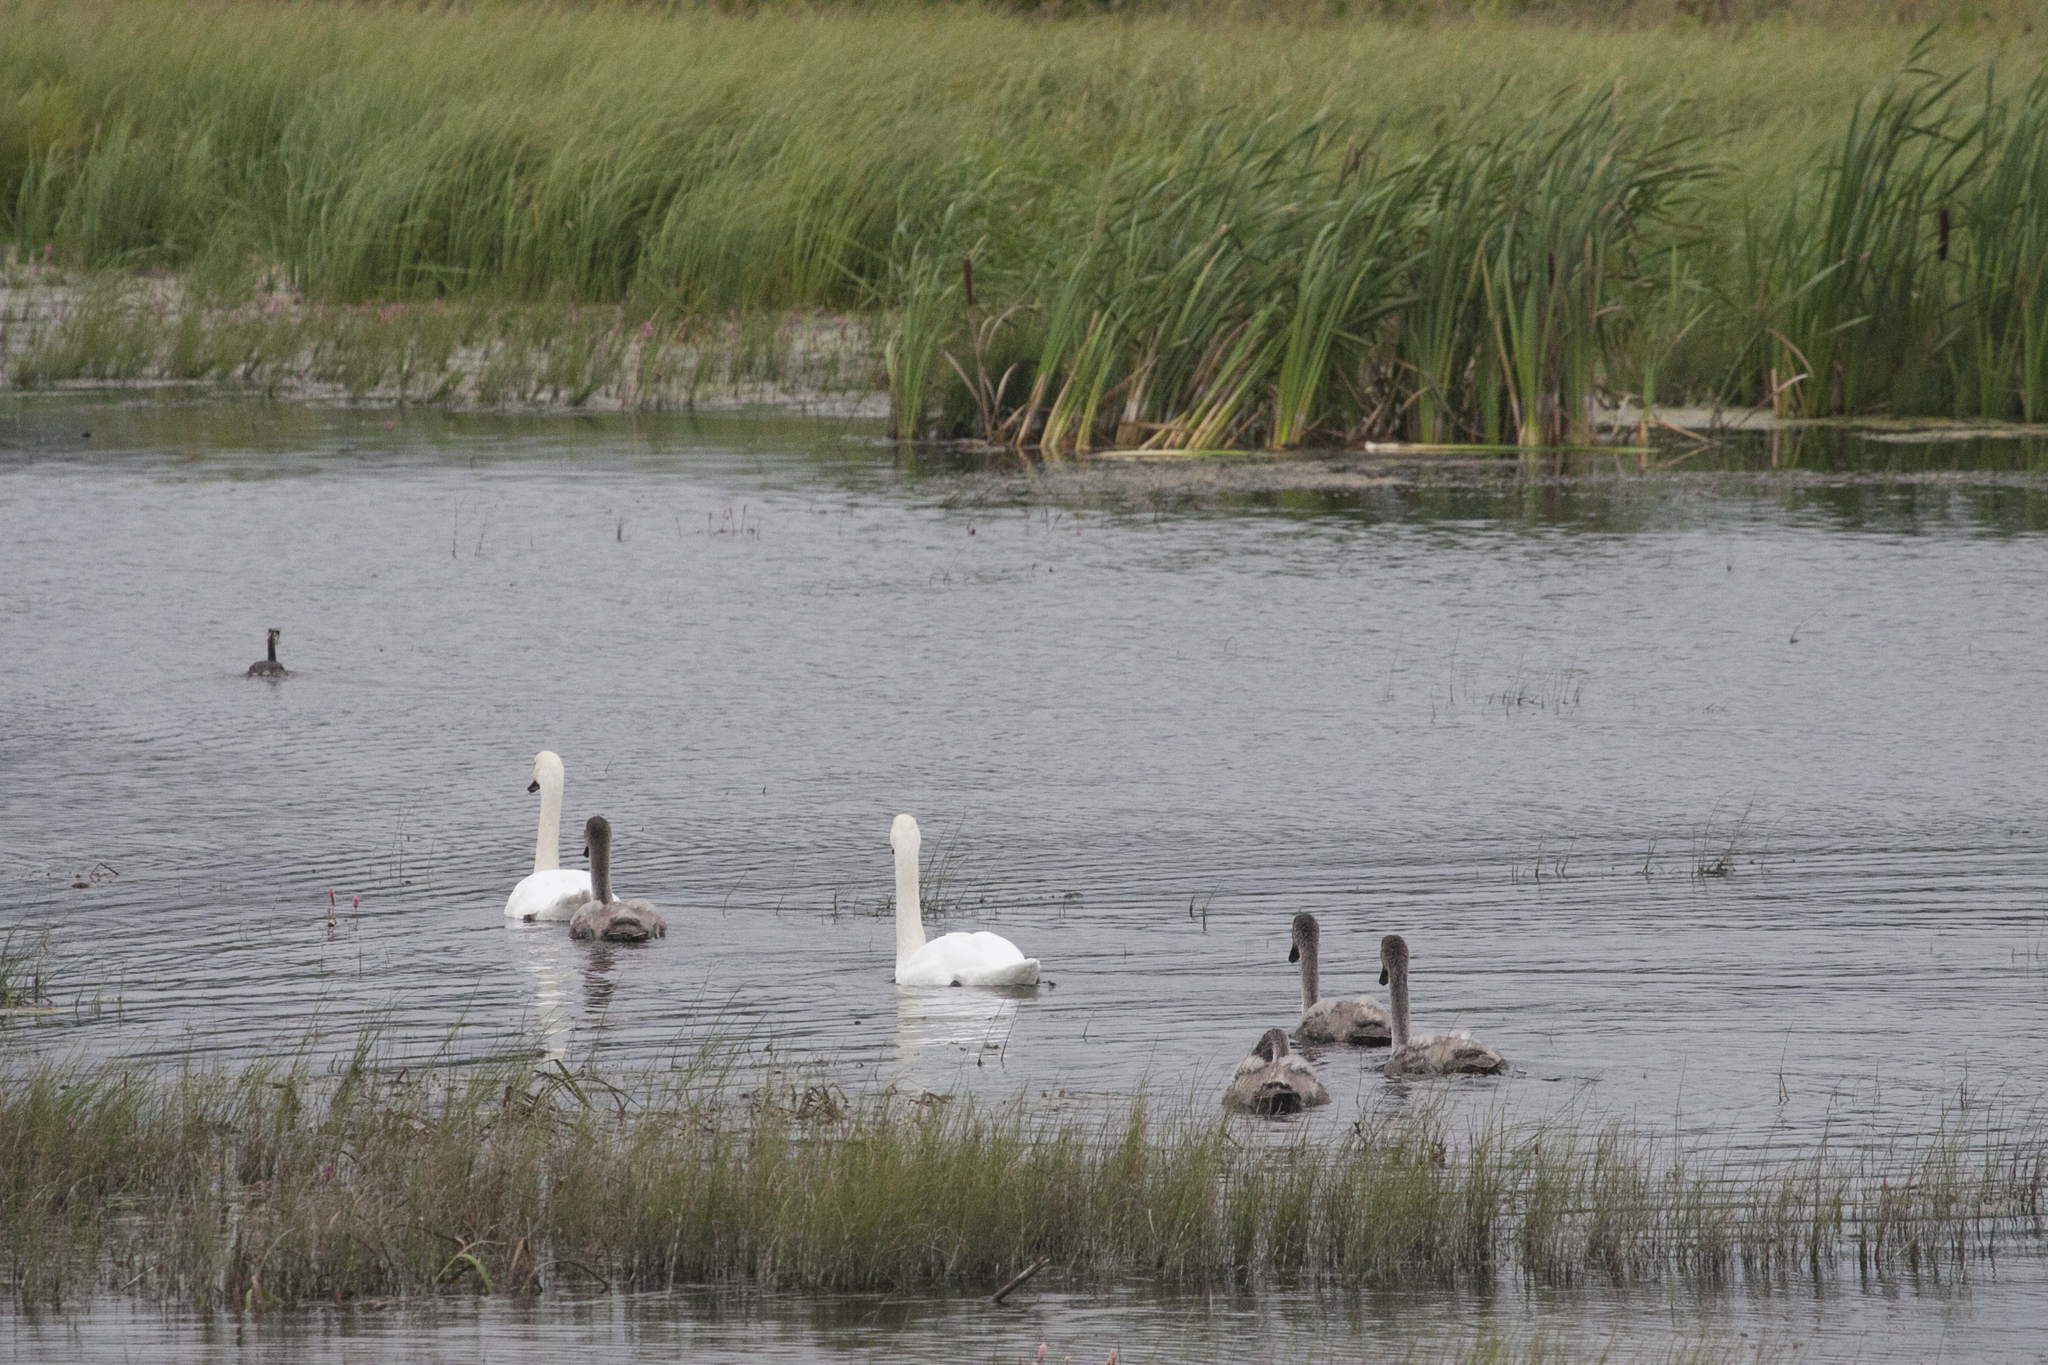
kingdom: Animalia
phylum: Chordata
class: Aves
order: Podicipediformes
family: Podicipedidae
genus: Podiceps
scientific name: Podiceps cristatus
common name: Great crested grebe
